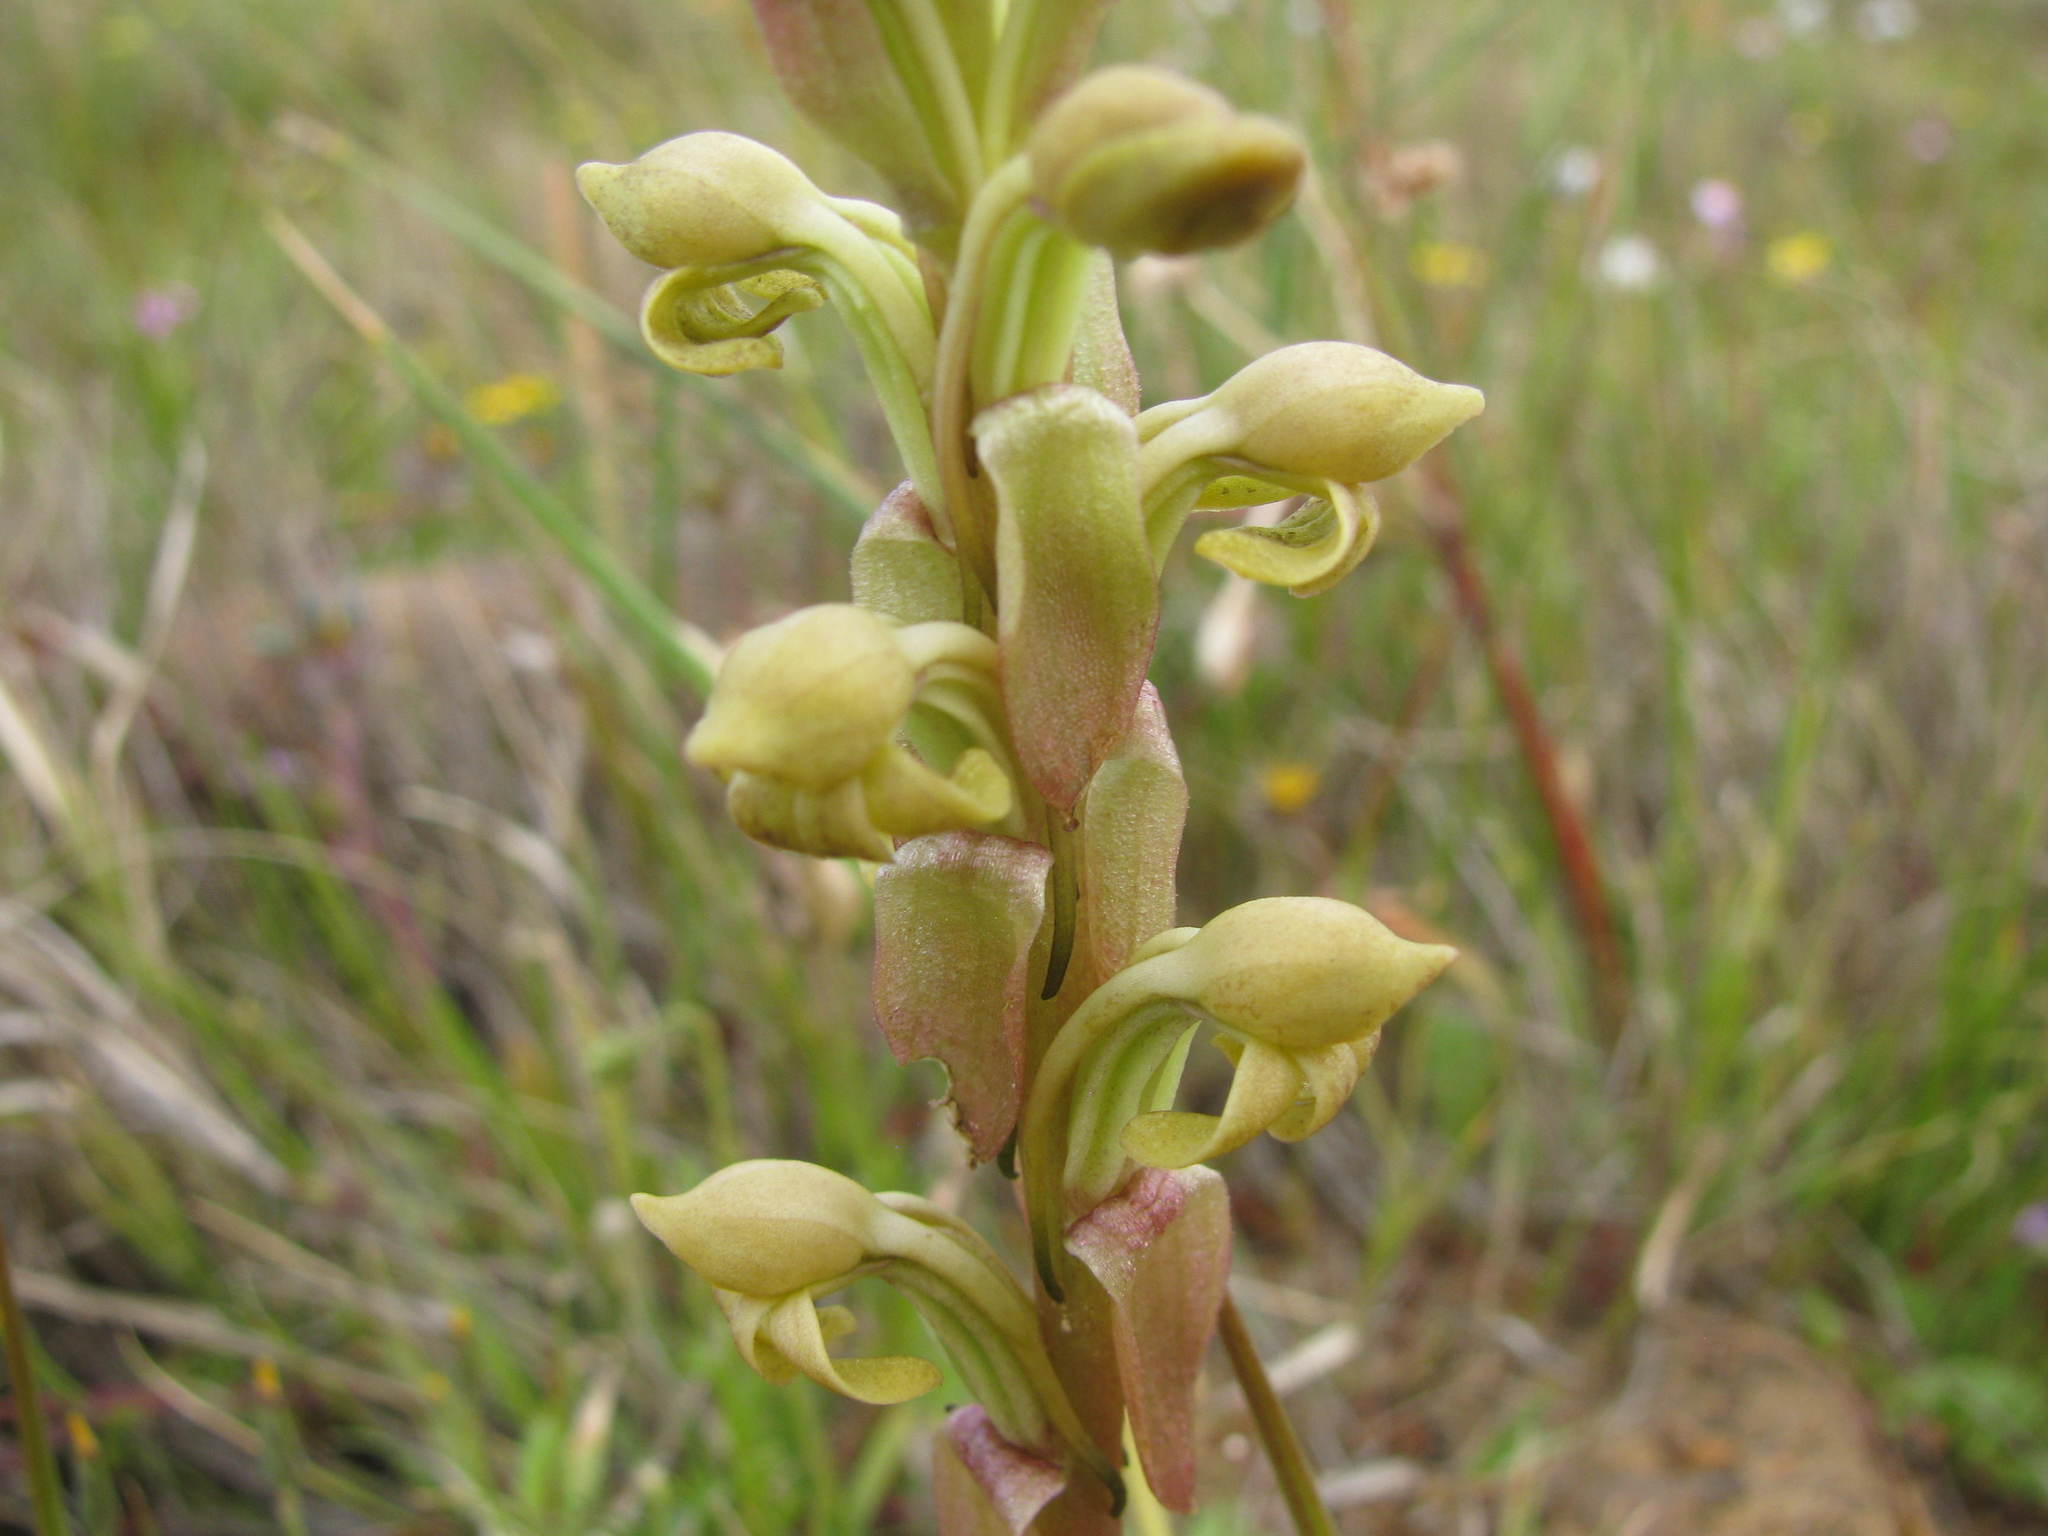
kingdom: Plantae
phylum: Tracheophyta
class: Liliopsida
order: Asparagales
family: Orchidaceae
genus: Satyrium
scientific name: Satyrium bicorne
